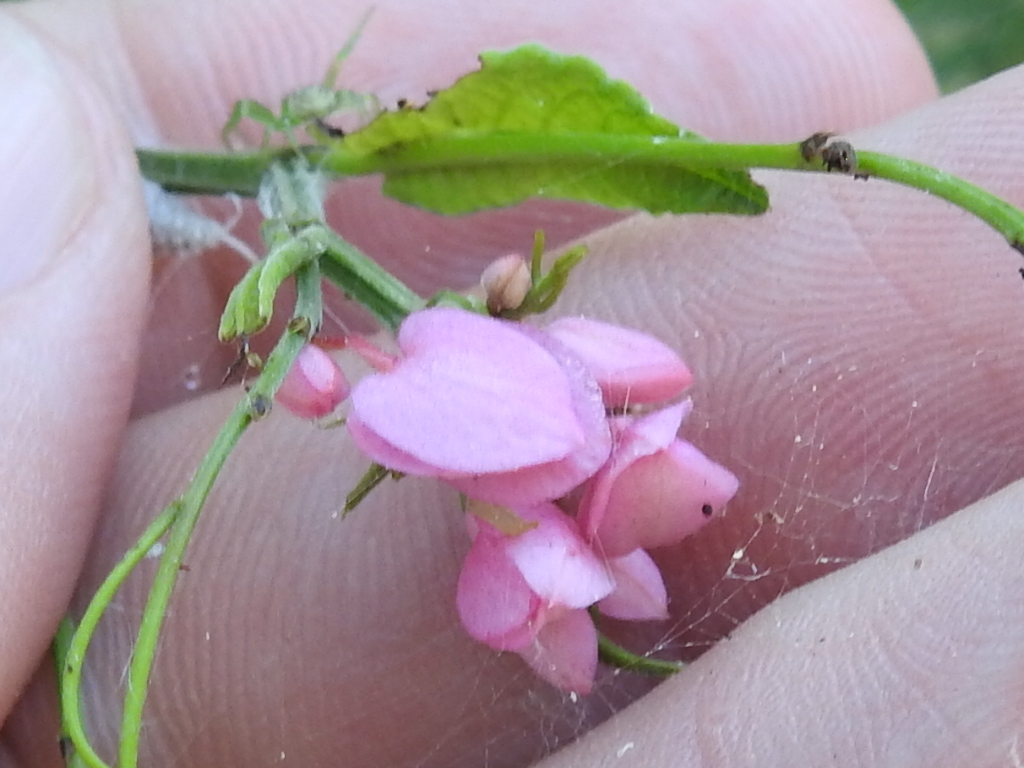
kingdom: Plantae
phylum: Tracheophyta
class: Magnoliopsida
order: Caryophyllales
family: Polygonaceae
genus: Antigonon
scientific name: Antigonon leptopus
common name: Coral vine
